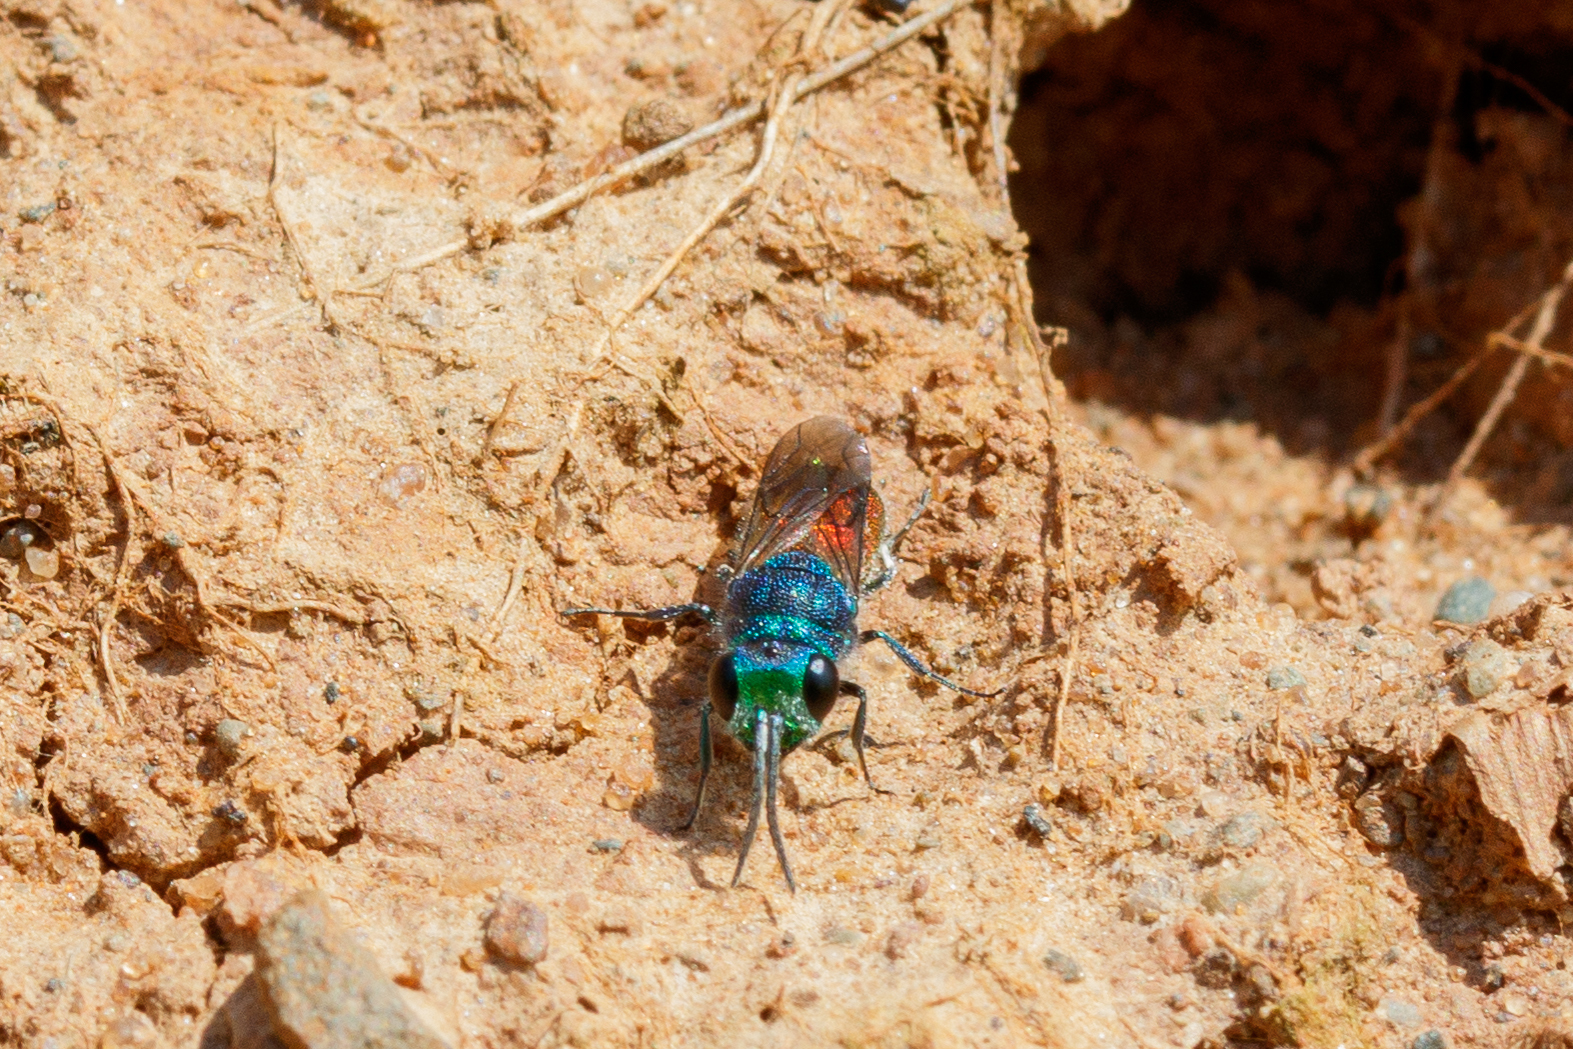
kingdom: Animalia
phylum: Arthropoda
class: Insecta
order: Hymenoptera
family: Chrysididae
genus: Chrysis
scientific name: Chrysis mediata
